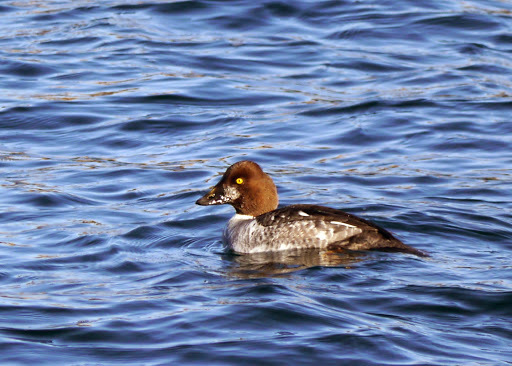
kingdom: Animalia
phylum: Chordata
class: Aves
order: Anseriformes
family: Anatidae
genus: Bucephala
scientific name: Bucephala clangula
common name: Common goldeneye
